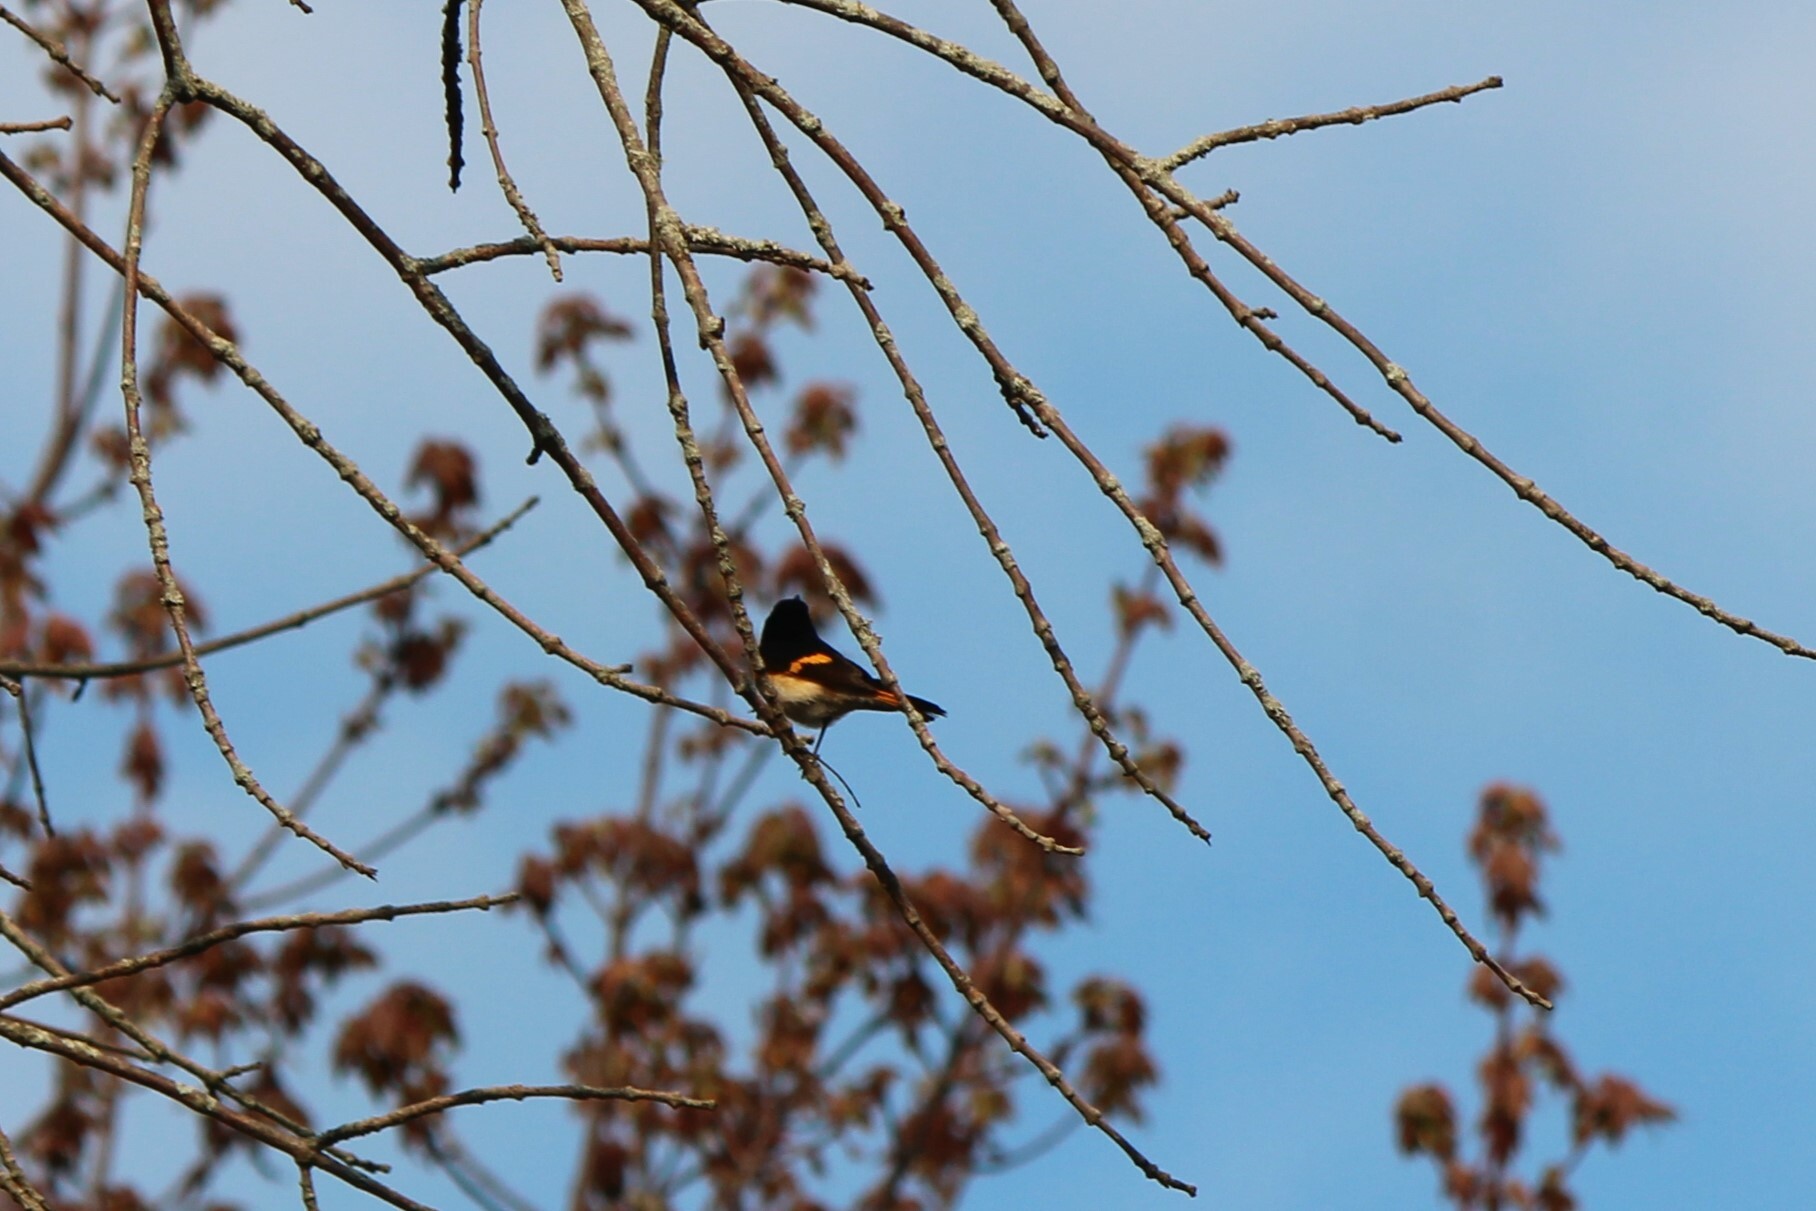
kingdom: Animalia
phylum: Chordata
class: Aves
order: Passeriformes
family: Parulidae
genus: Setophaga
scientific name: Setophaga ruticilla
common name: American redstart
